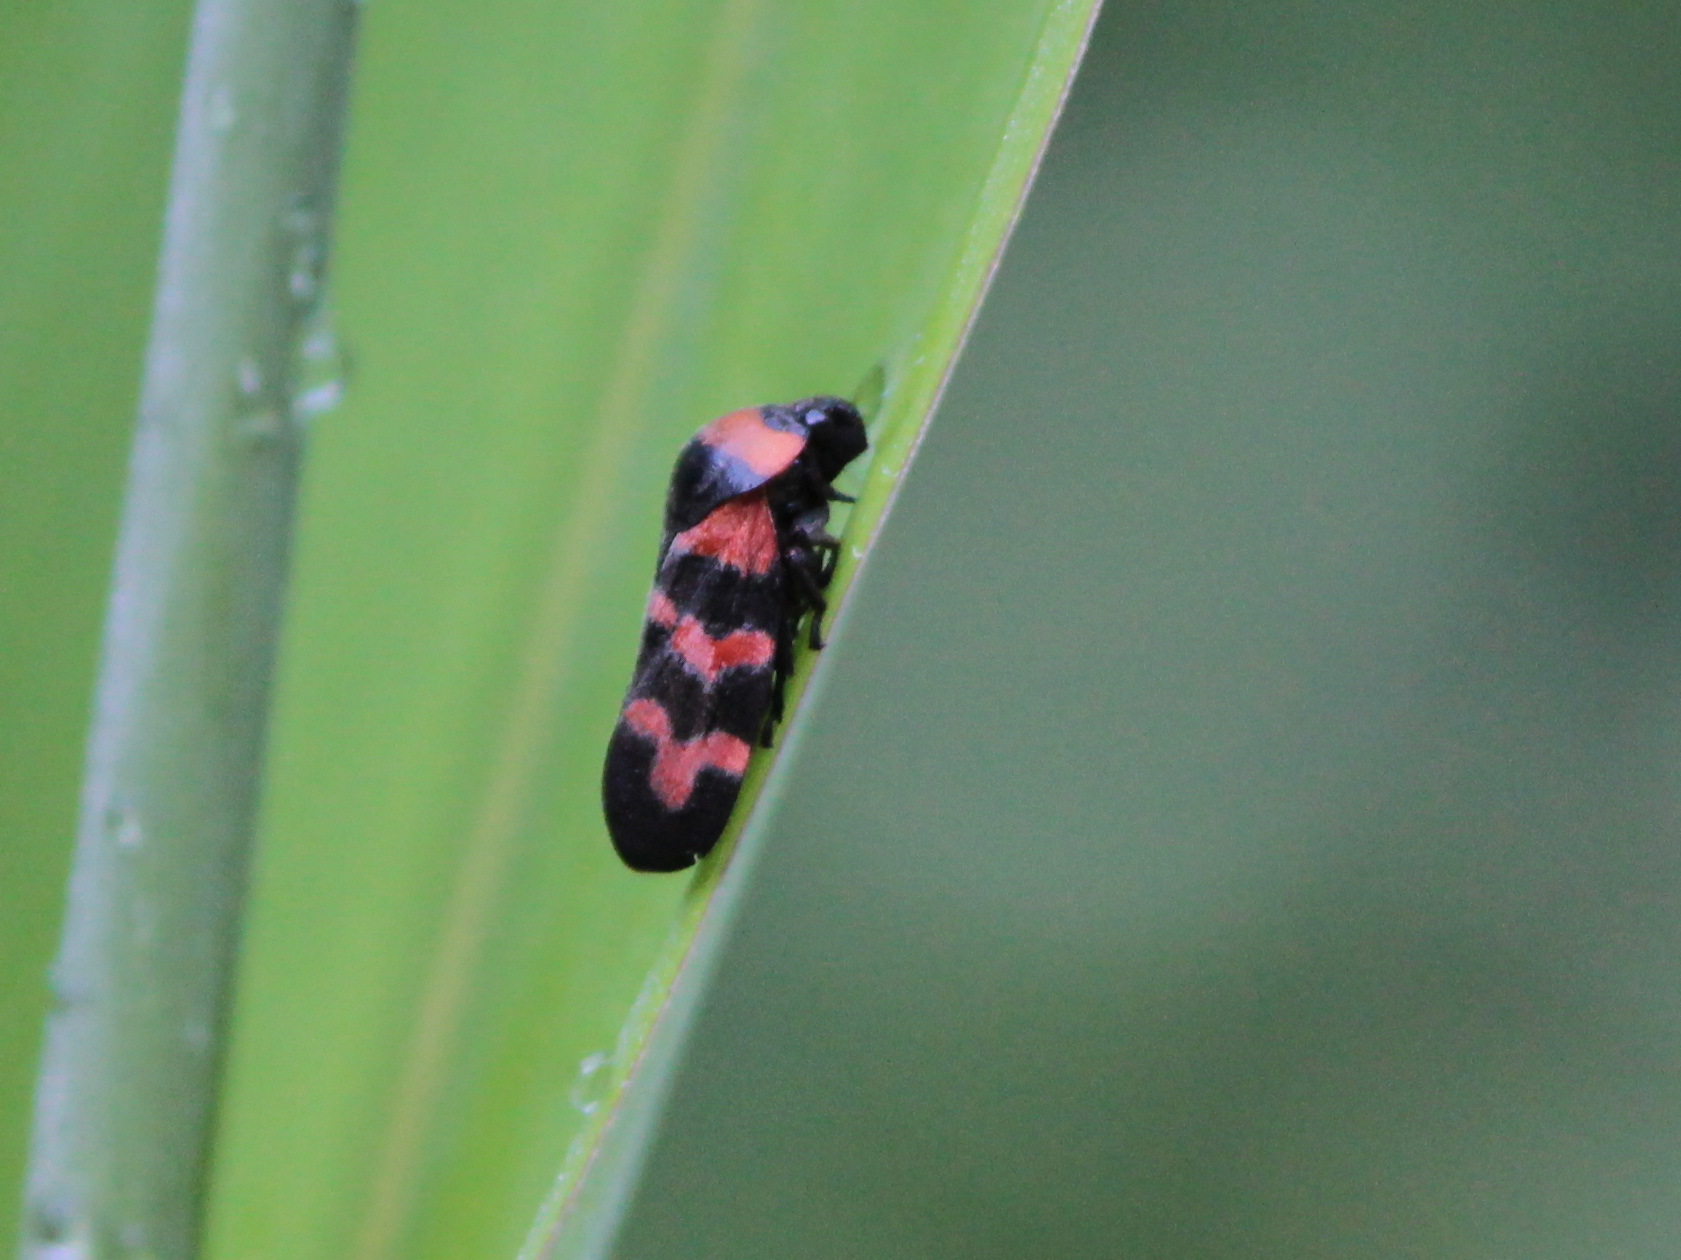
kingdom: Animalia
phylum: Arthropoda
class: Insecta
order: Hemiptera
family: Cercopidae
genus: Cosmoscarta
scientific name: Cosmoscarta dimidiata
